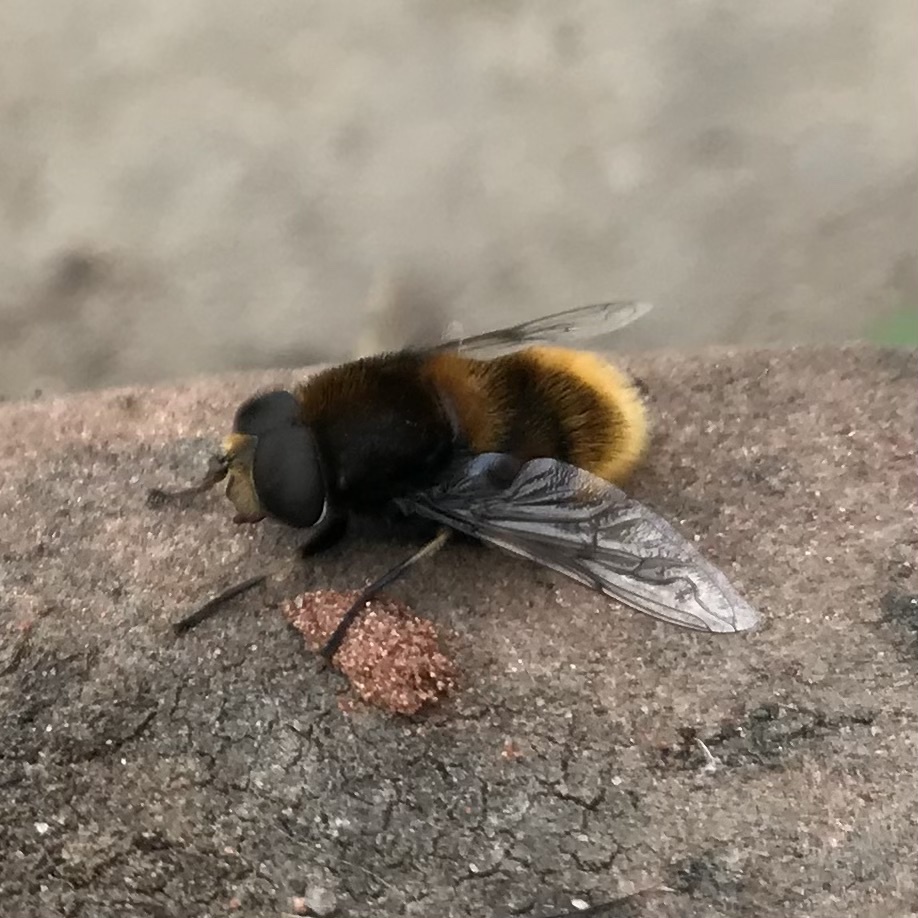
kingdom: Animalia
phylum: Arthropoda
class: Insecta
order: Diptera
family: Syrphidae
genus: Eristalis
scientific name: Eristalis intricaria
